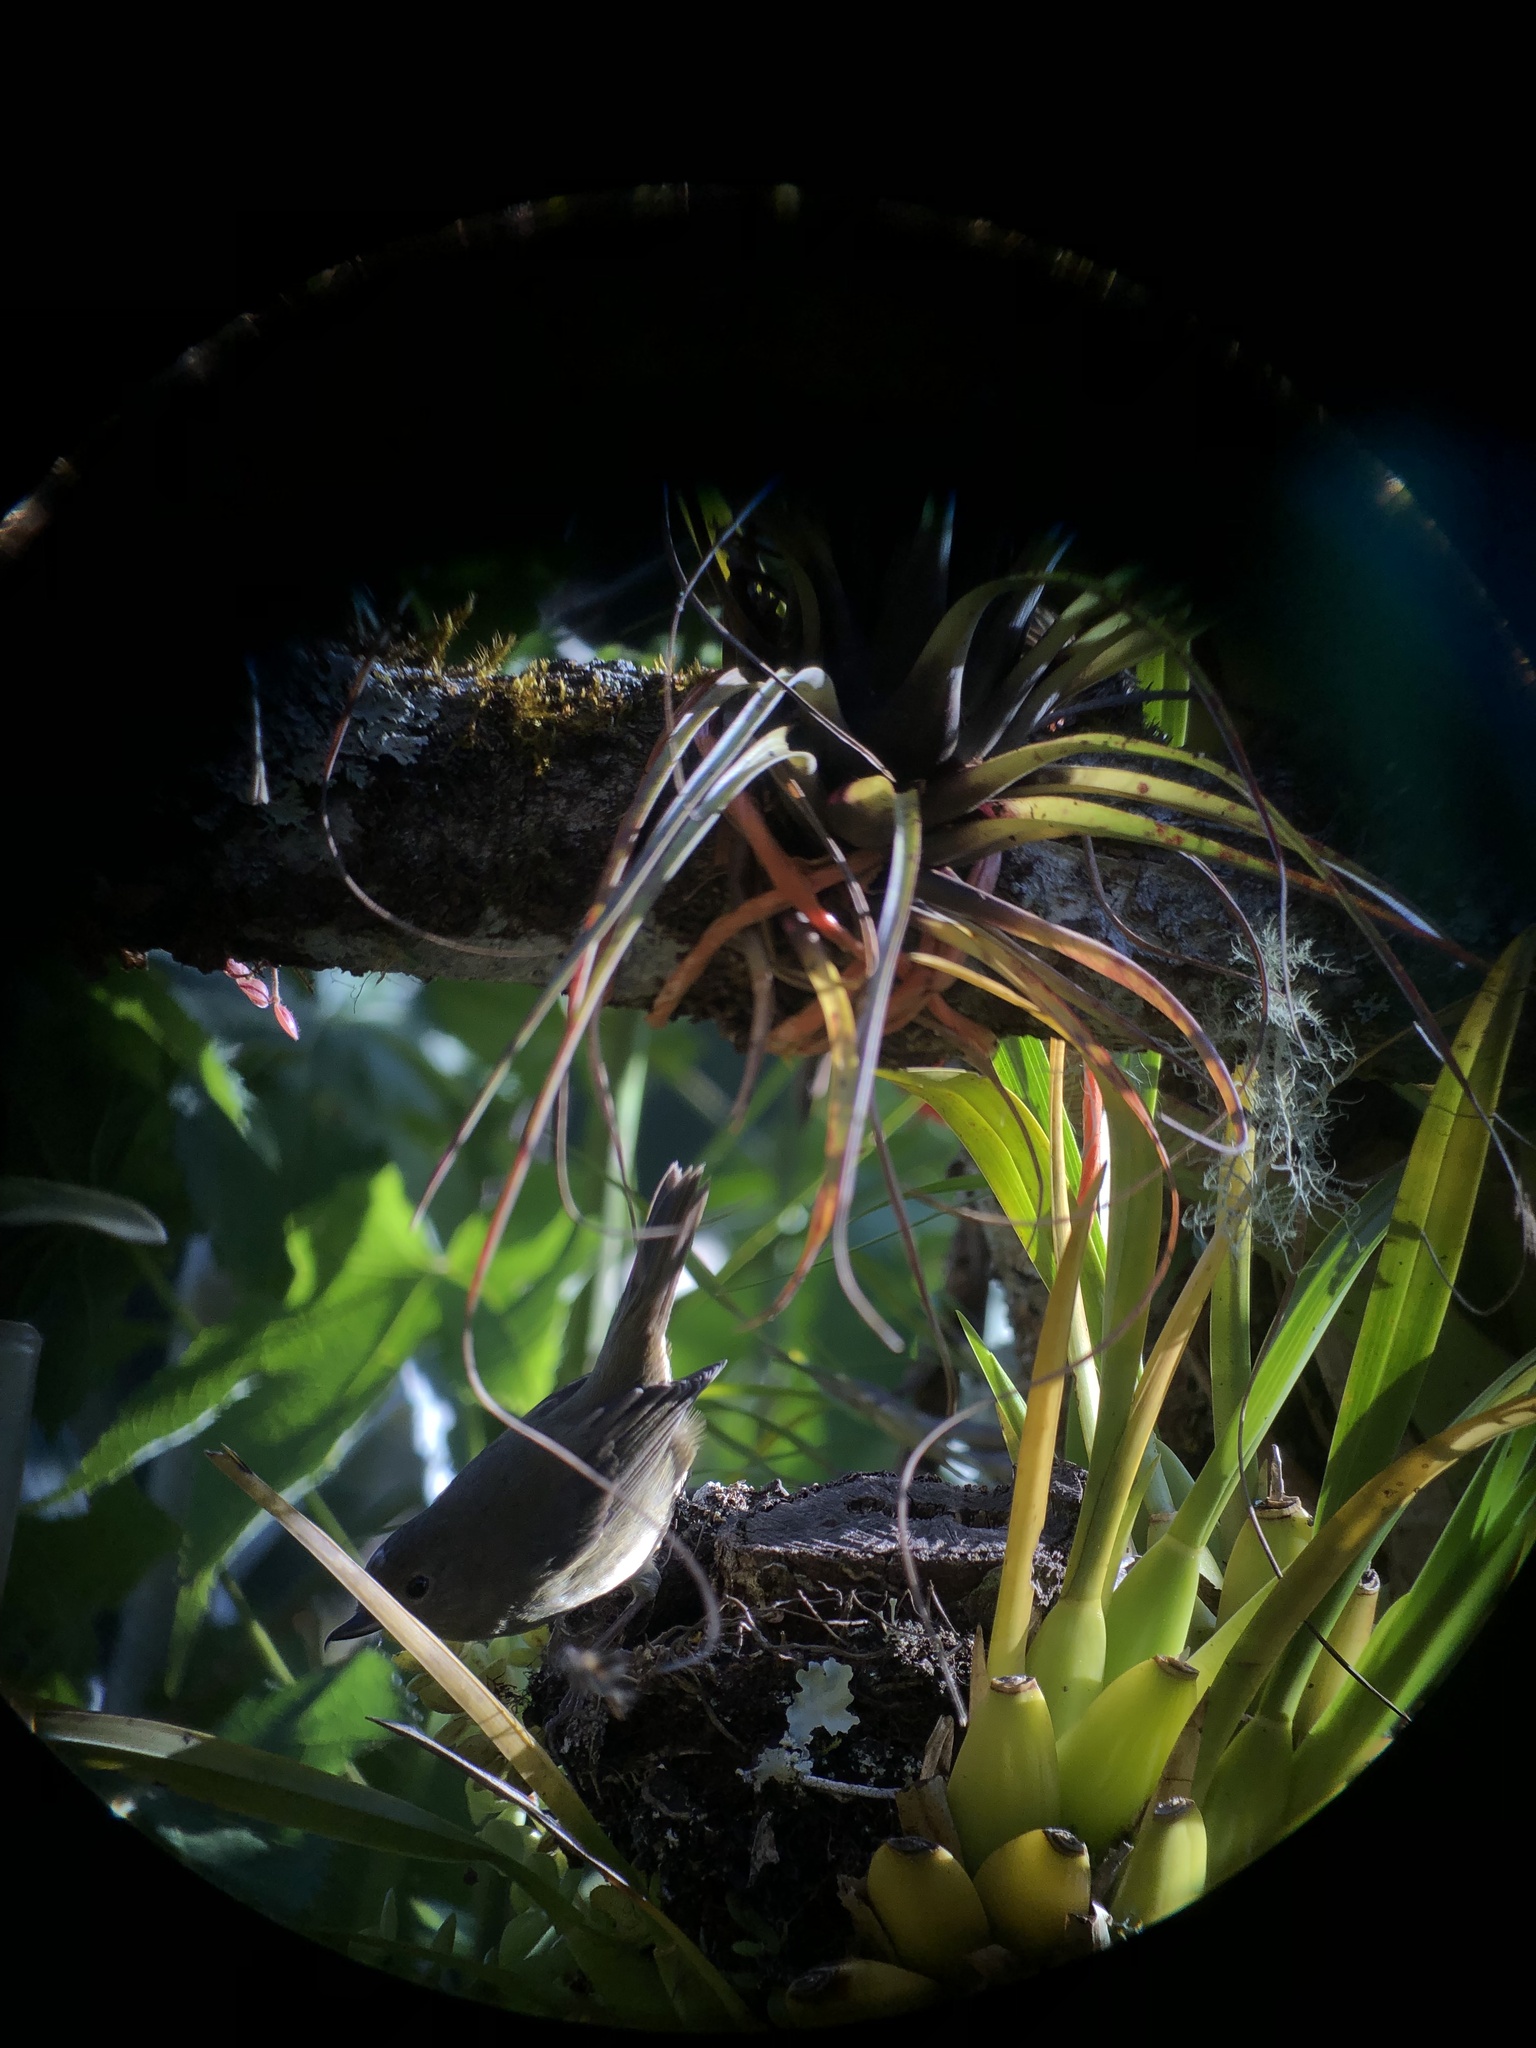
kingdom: Animalia
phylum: Chordata
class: Aves
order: Passeriformes
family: Thraupidae
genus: Diglossa
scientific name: Diglossa plumbea
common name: Slaty flowerpiercer
